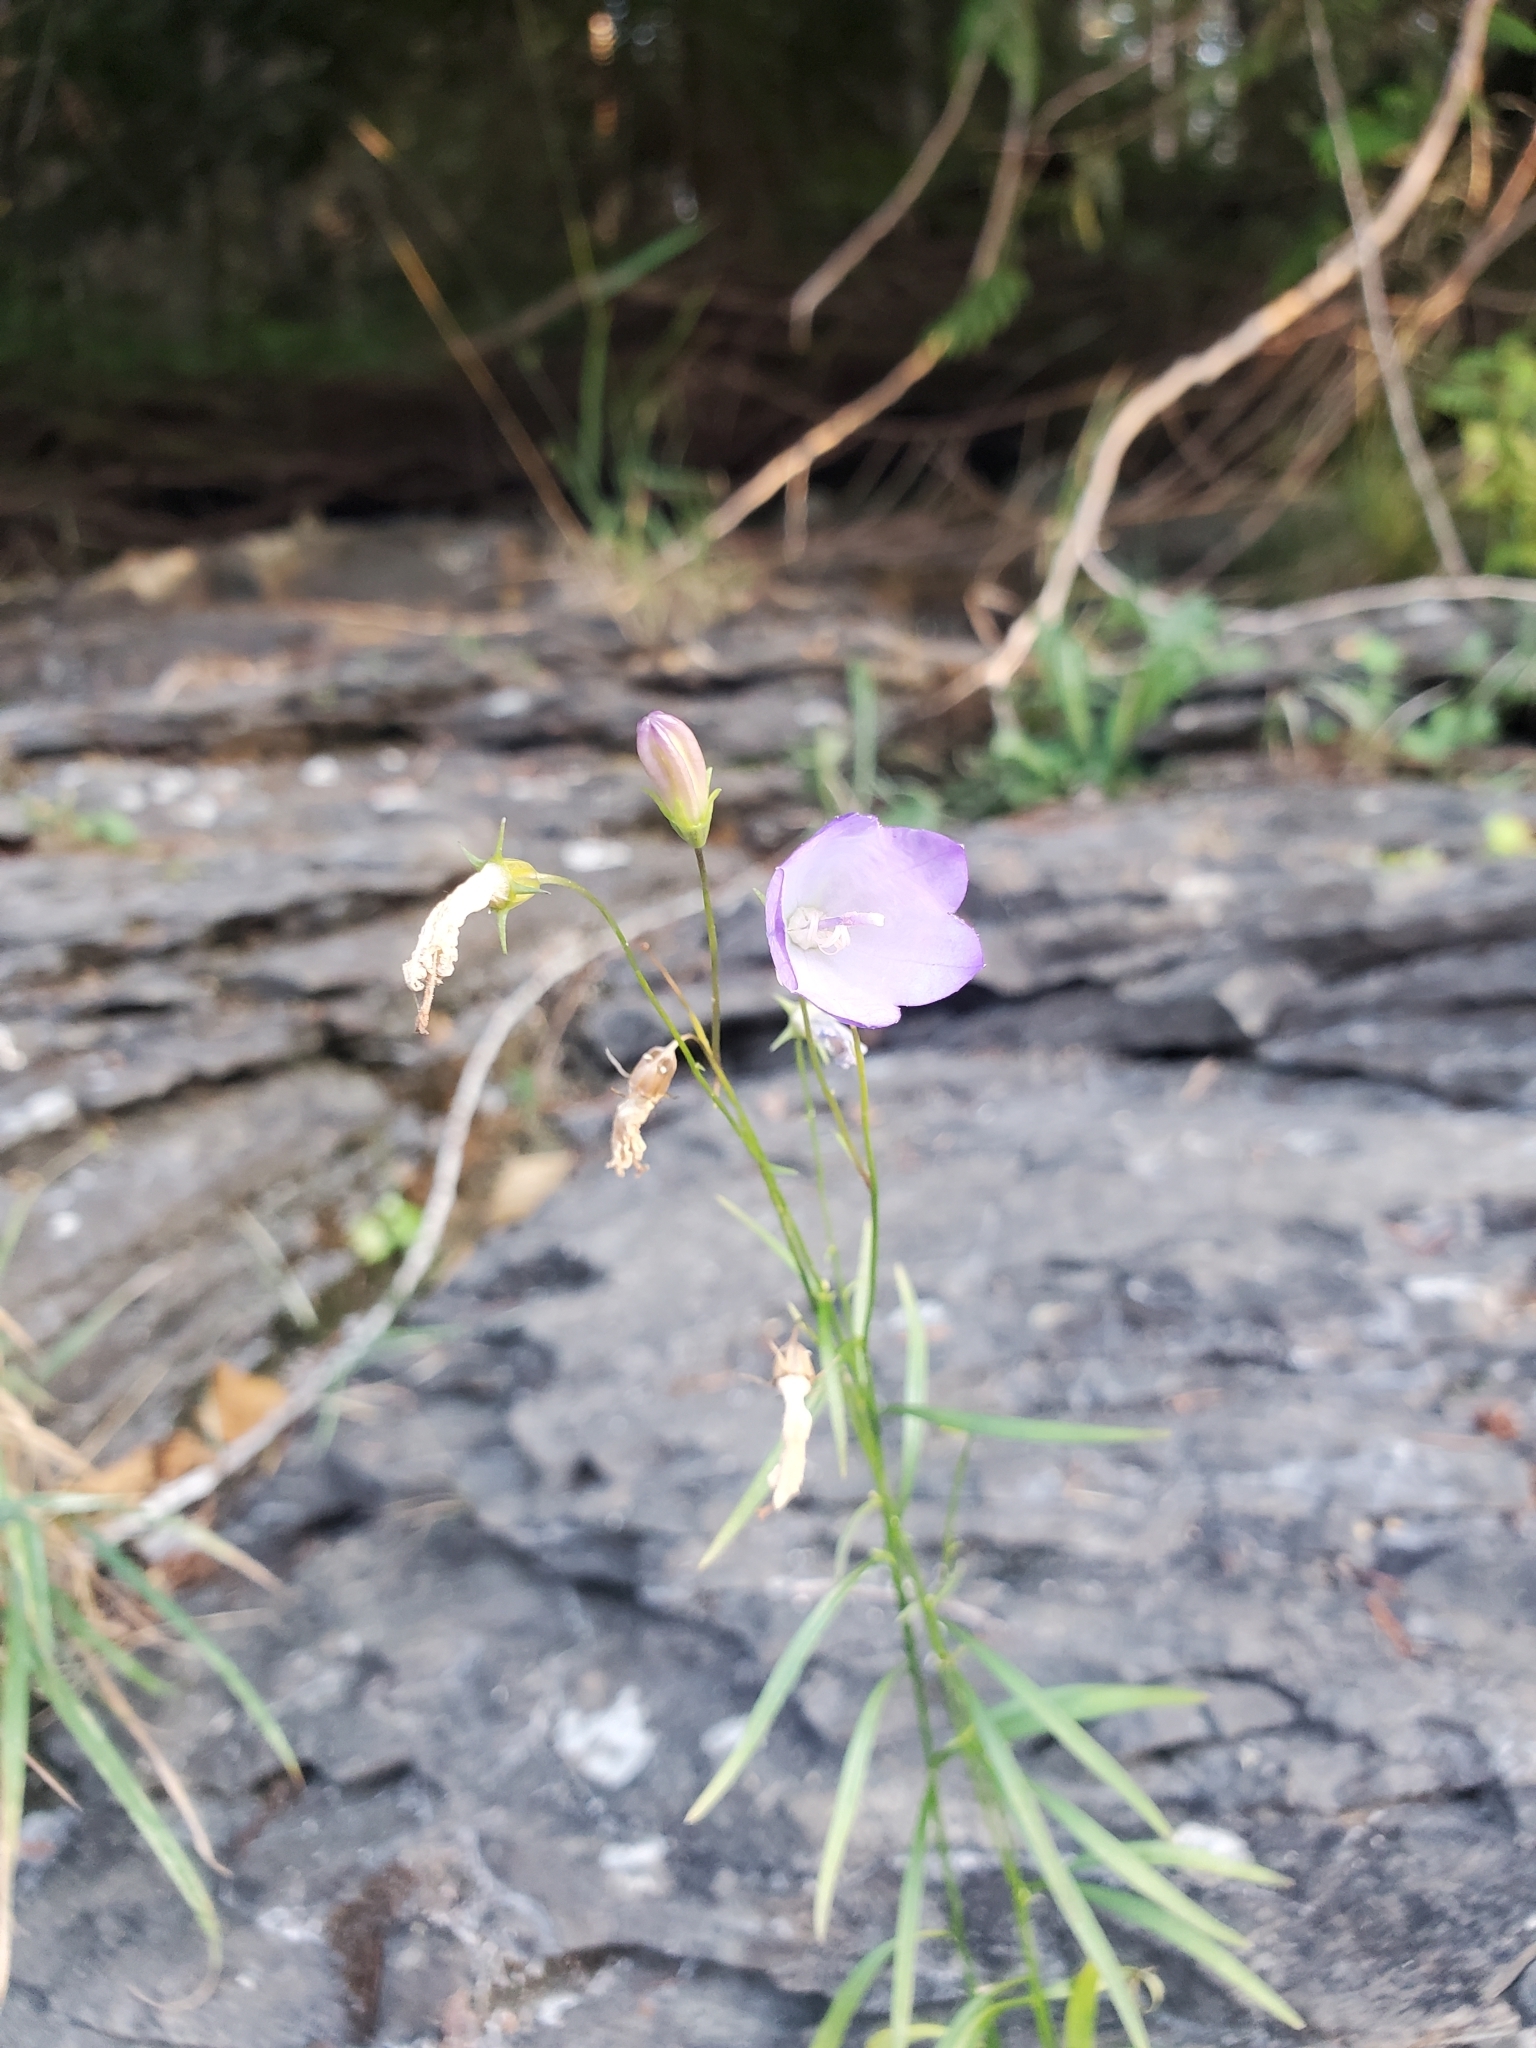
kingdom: Plantae
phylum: Tracheophyta
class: Magnoliopsida
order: Asterales
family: Campanulaceae
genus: Campanula
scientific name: Campanula alaskana
